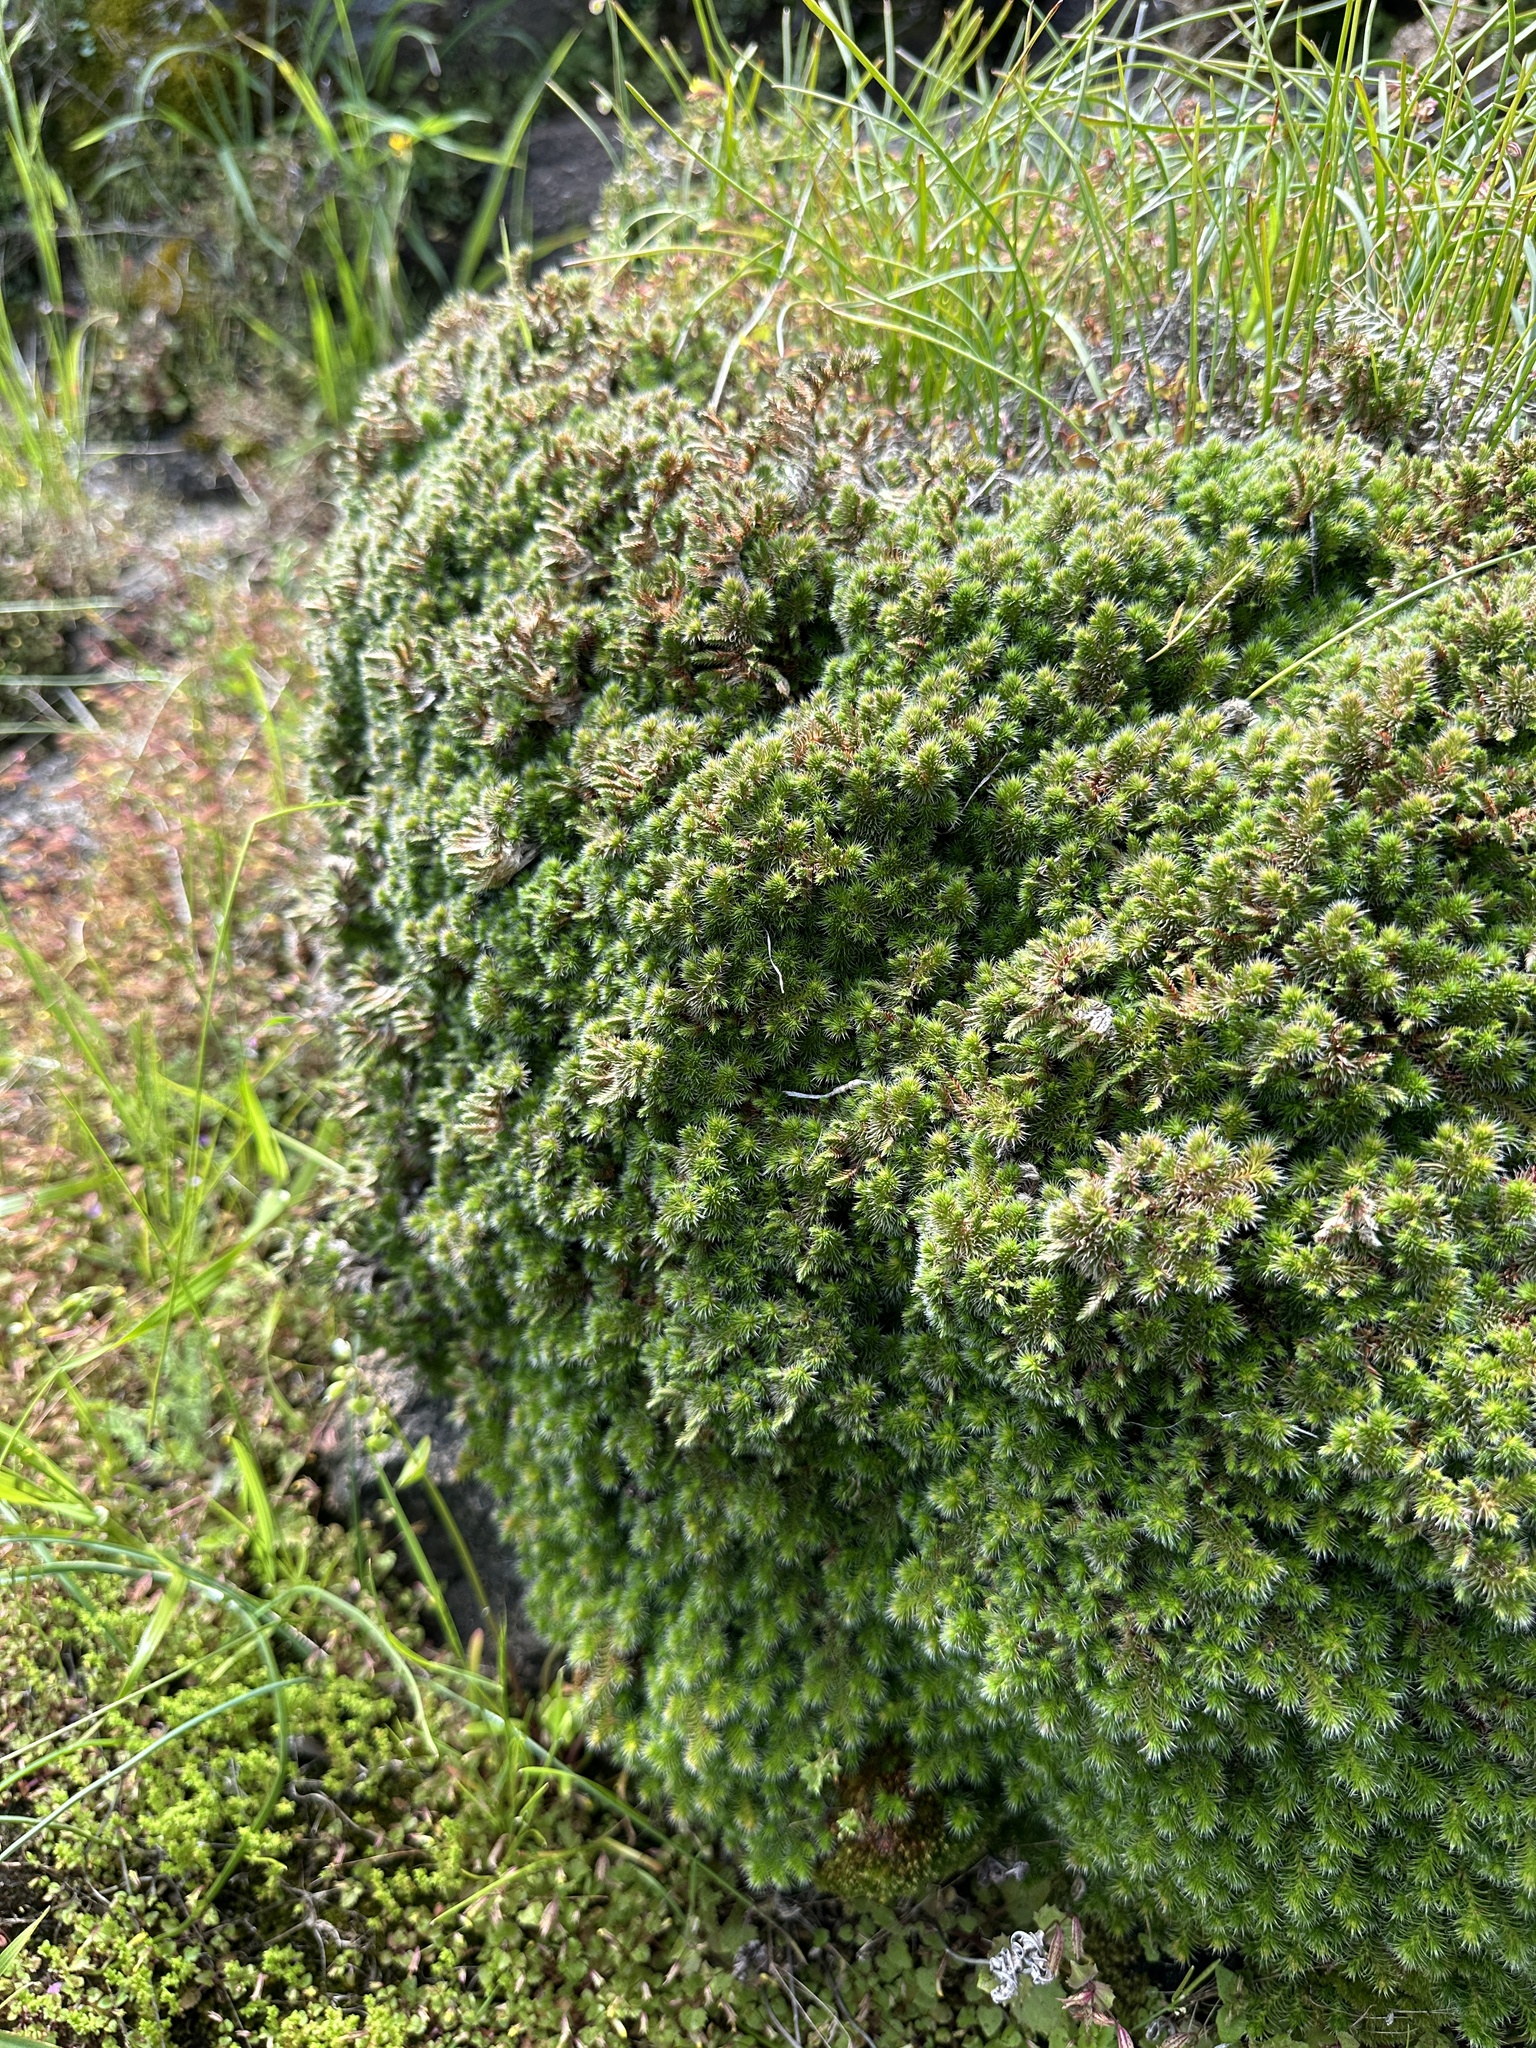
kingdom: Plantae
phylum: Tracheophyta
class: Lycopodiopsida
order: Selaginellales
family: Selaginellaceae
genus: Selaginella
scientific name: Selaginella hansenii
